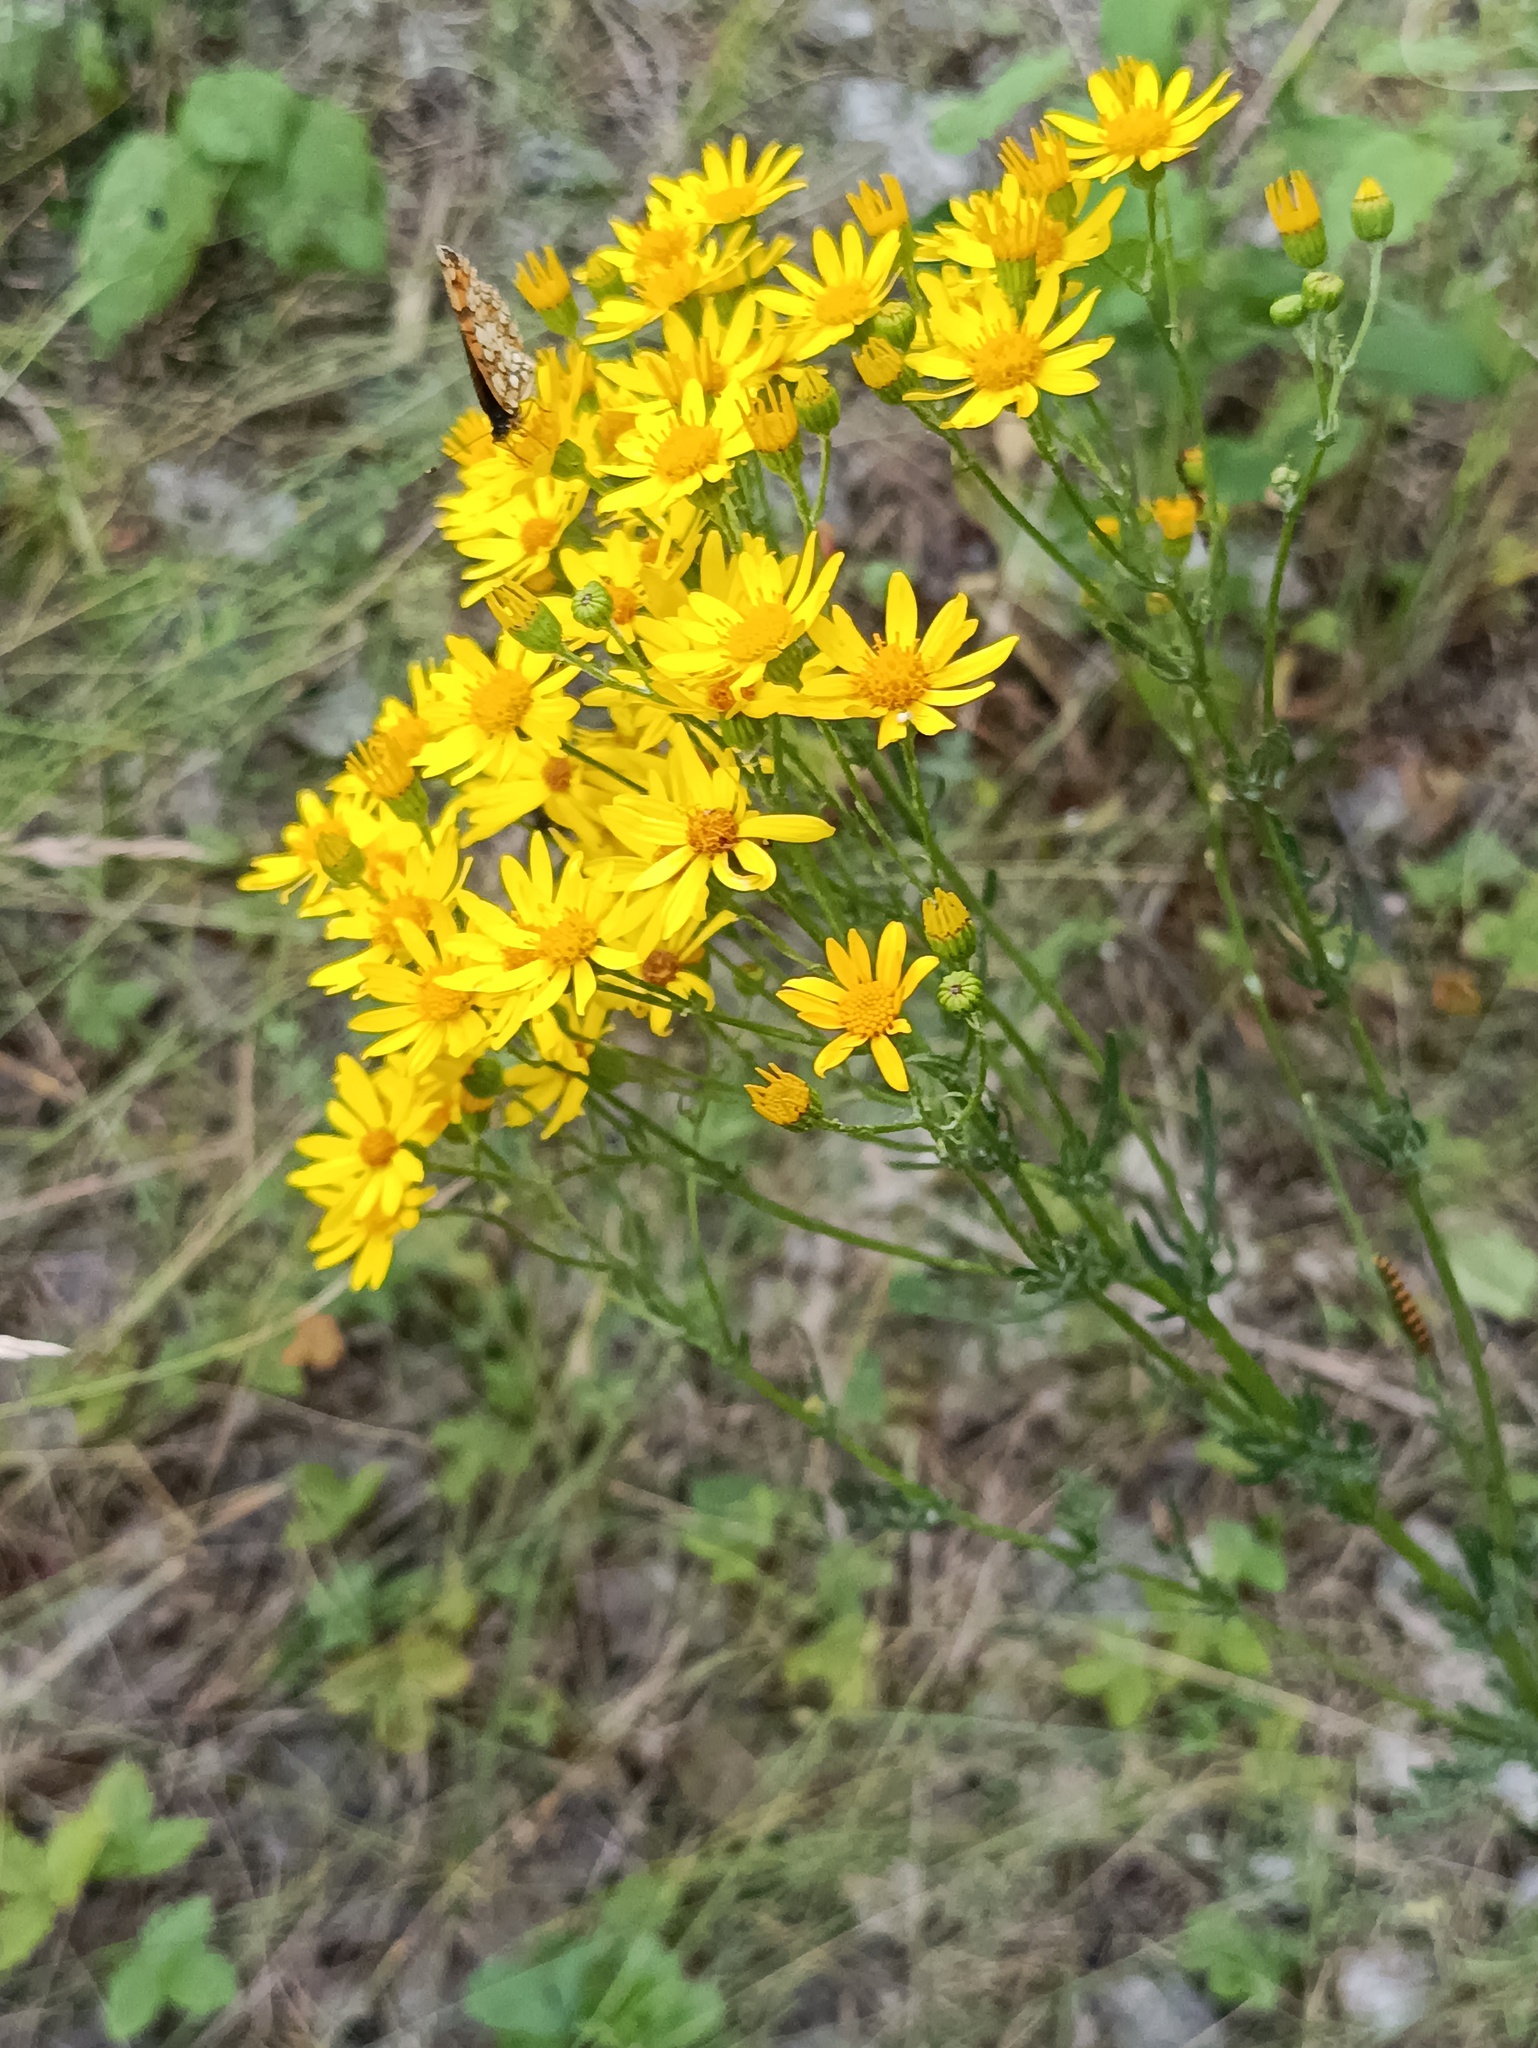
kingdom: Plantae
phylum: Tracheophyta
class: Magnoliopsida
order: Asterales
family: Asteraceae
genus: Jacobaea
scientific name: Jacobaea vulgaris
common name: Stinking willie
